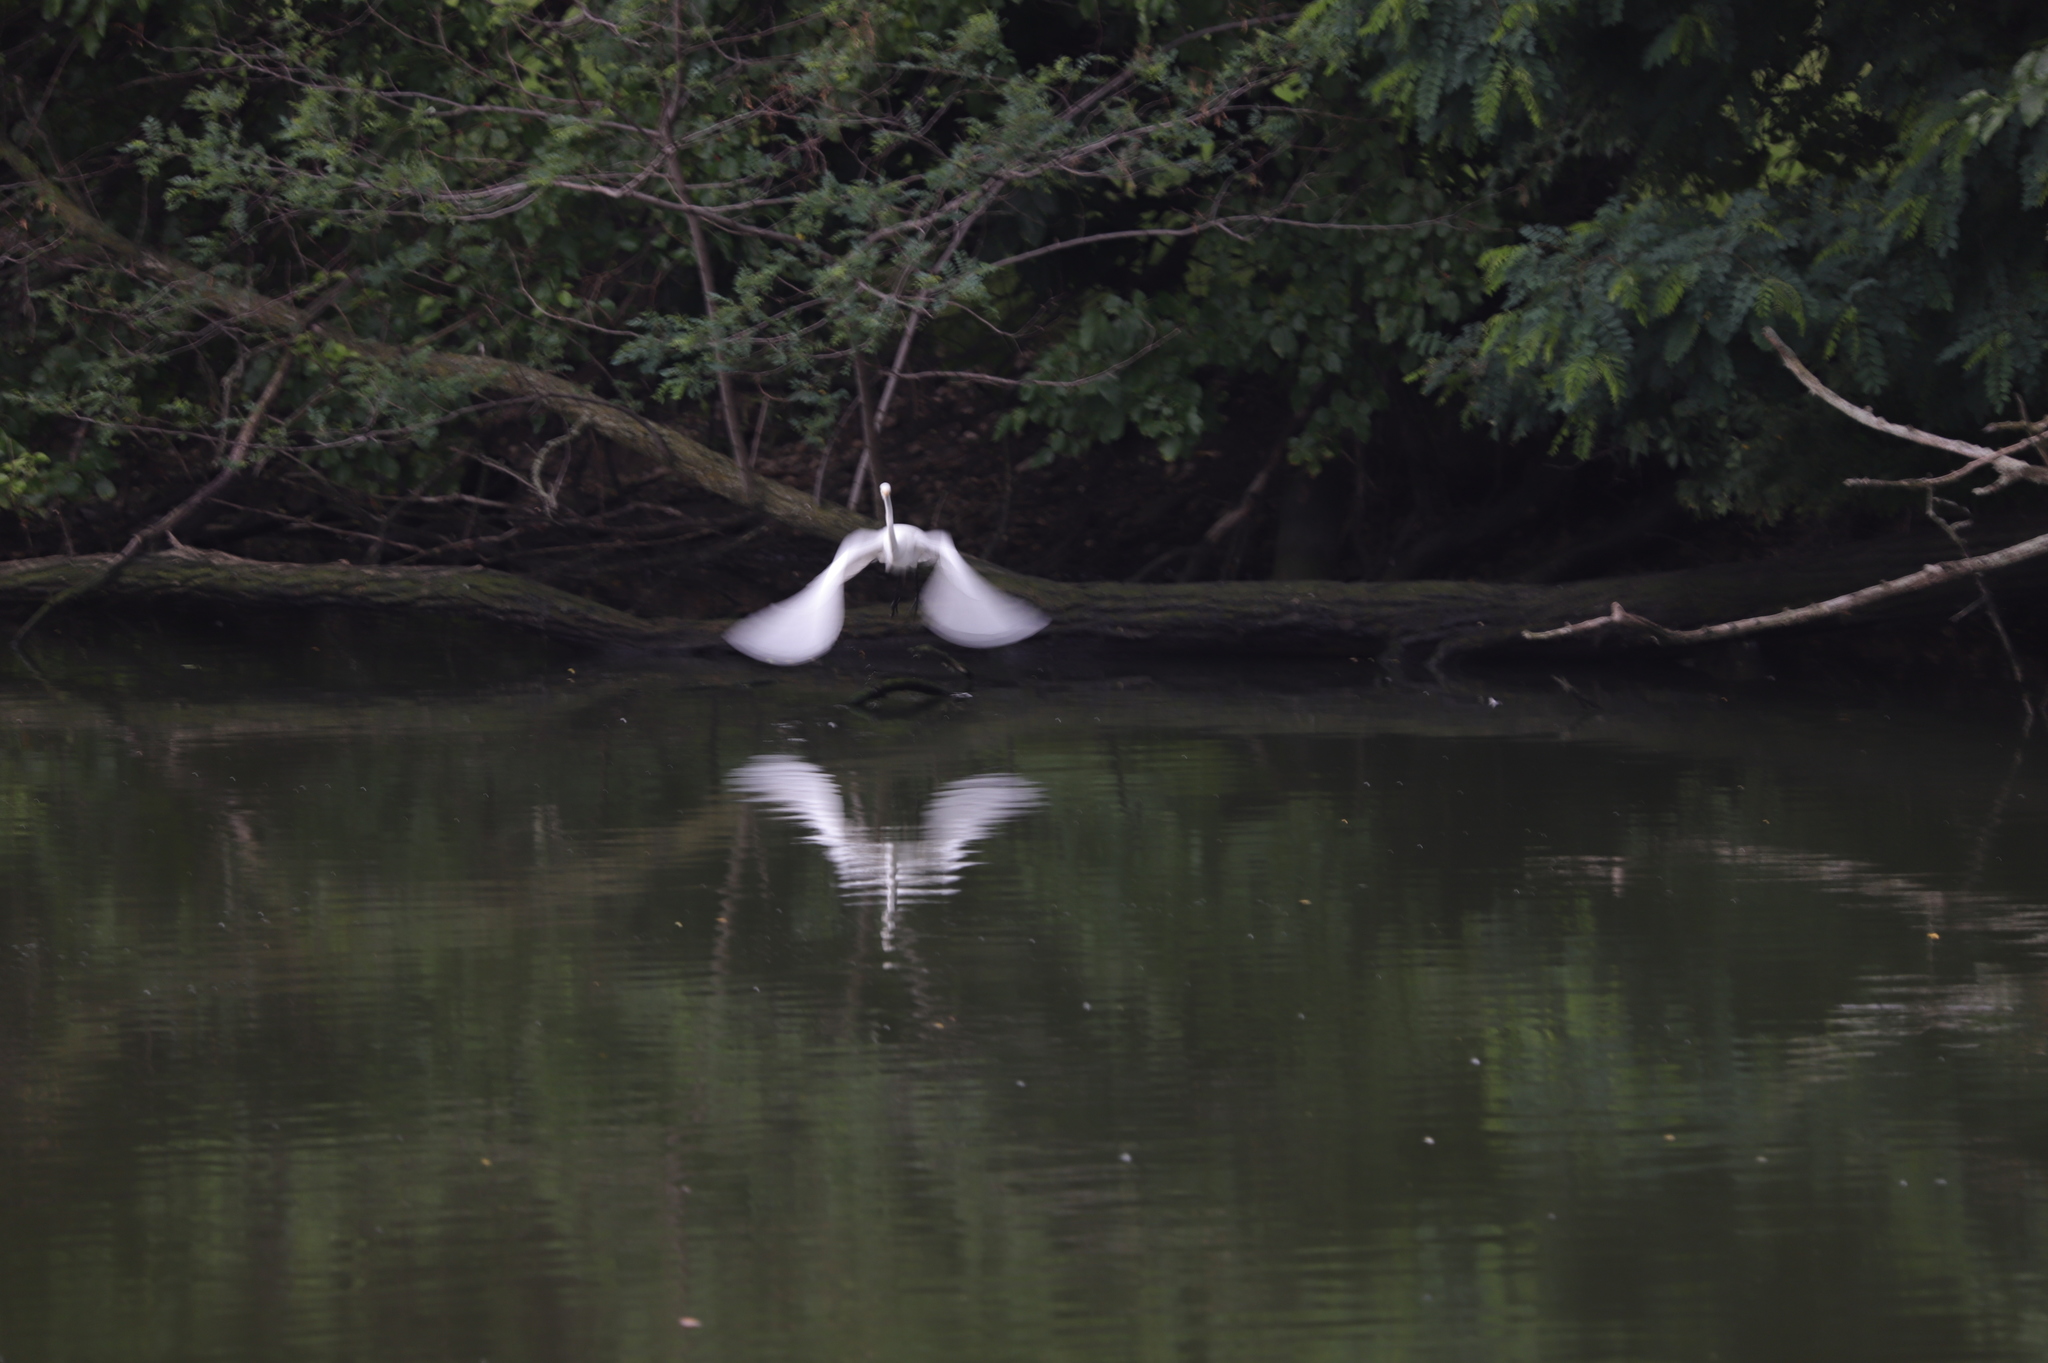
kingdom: Animalia
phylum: Chordata
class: Aves
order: Pelecaniformes
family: Ardeidae
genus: Ardea
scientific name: Ardea alba
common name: Great egret
